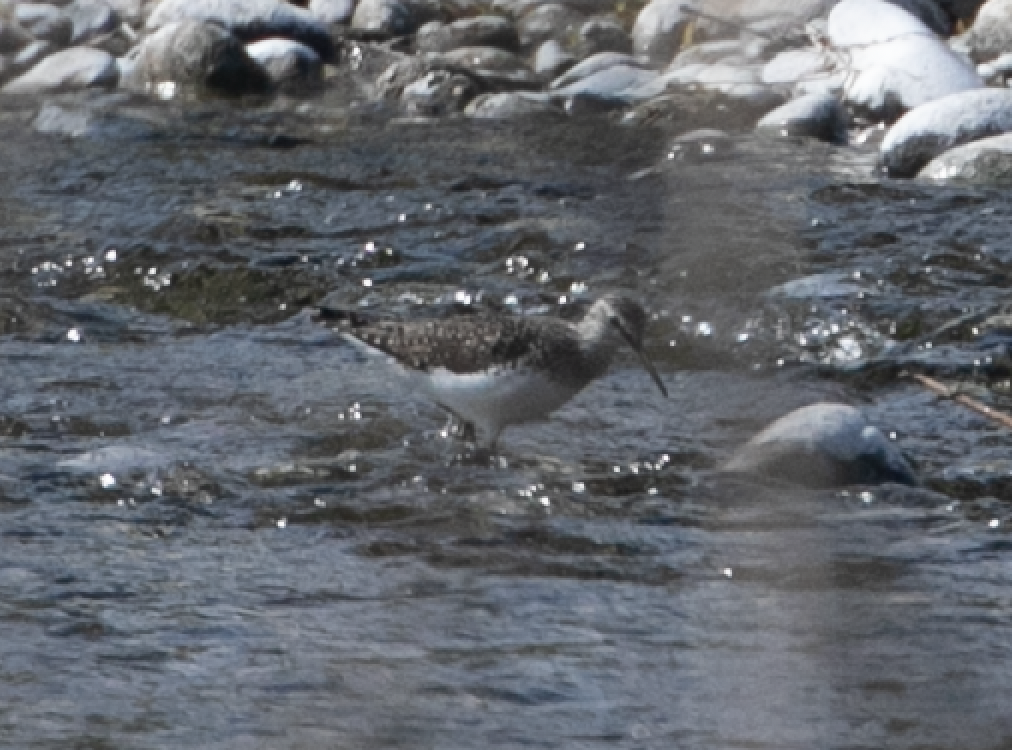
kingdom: Animalia
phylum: Chordata
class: Aves
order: Charadriiformes
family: Scolopacidae
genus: Tringa
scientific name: Tringa ochropus
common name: Green sandpiper
